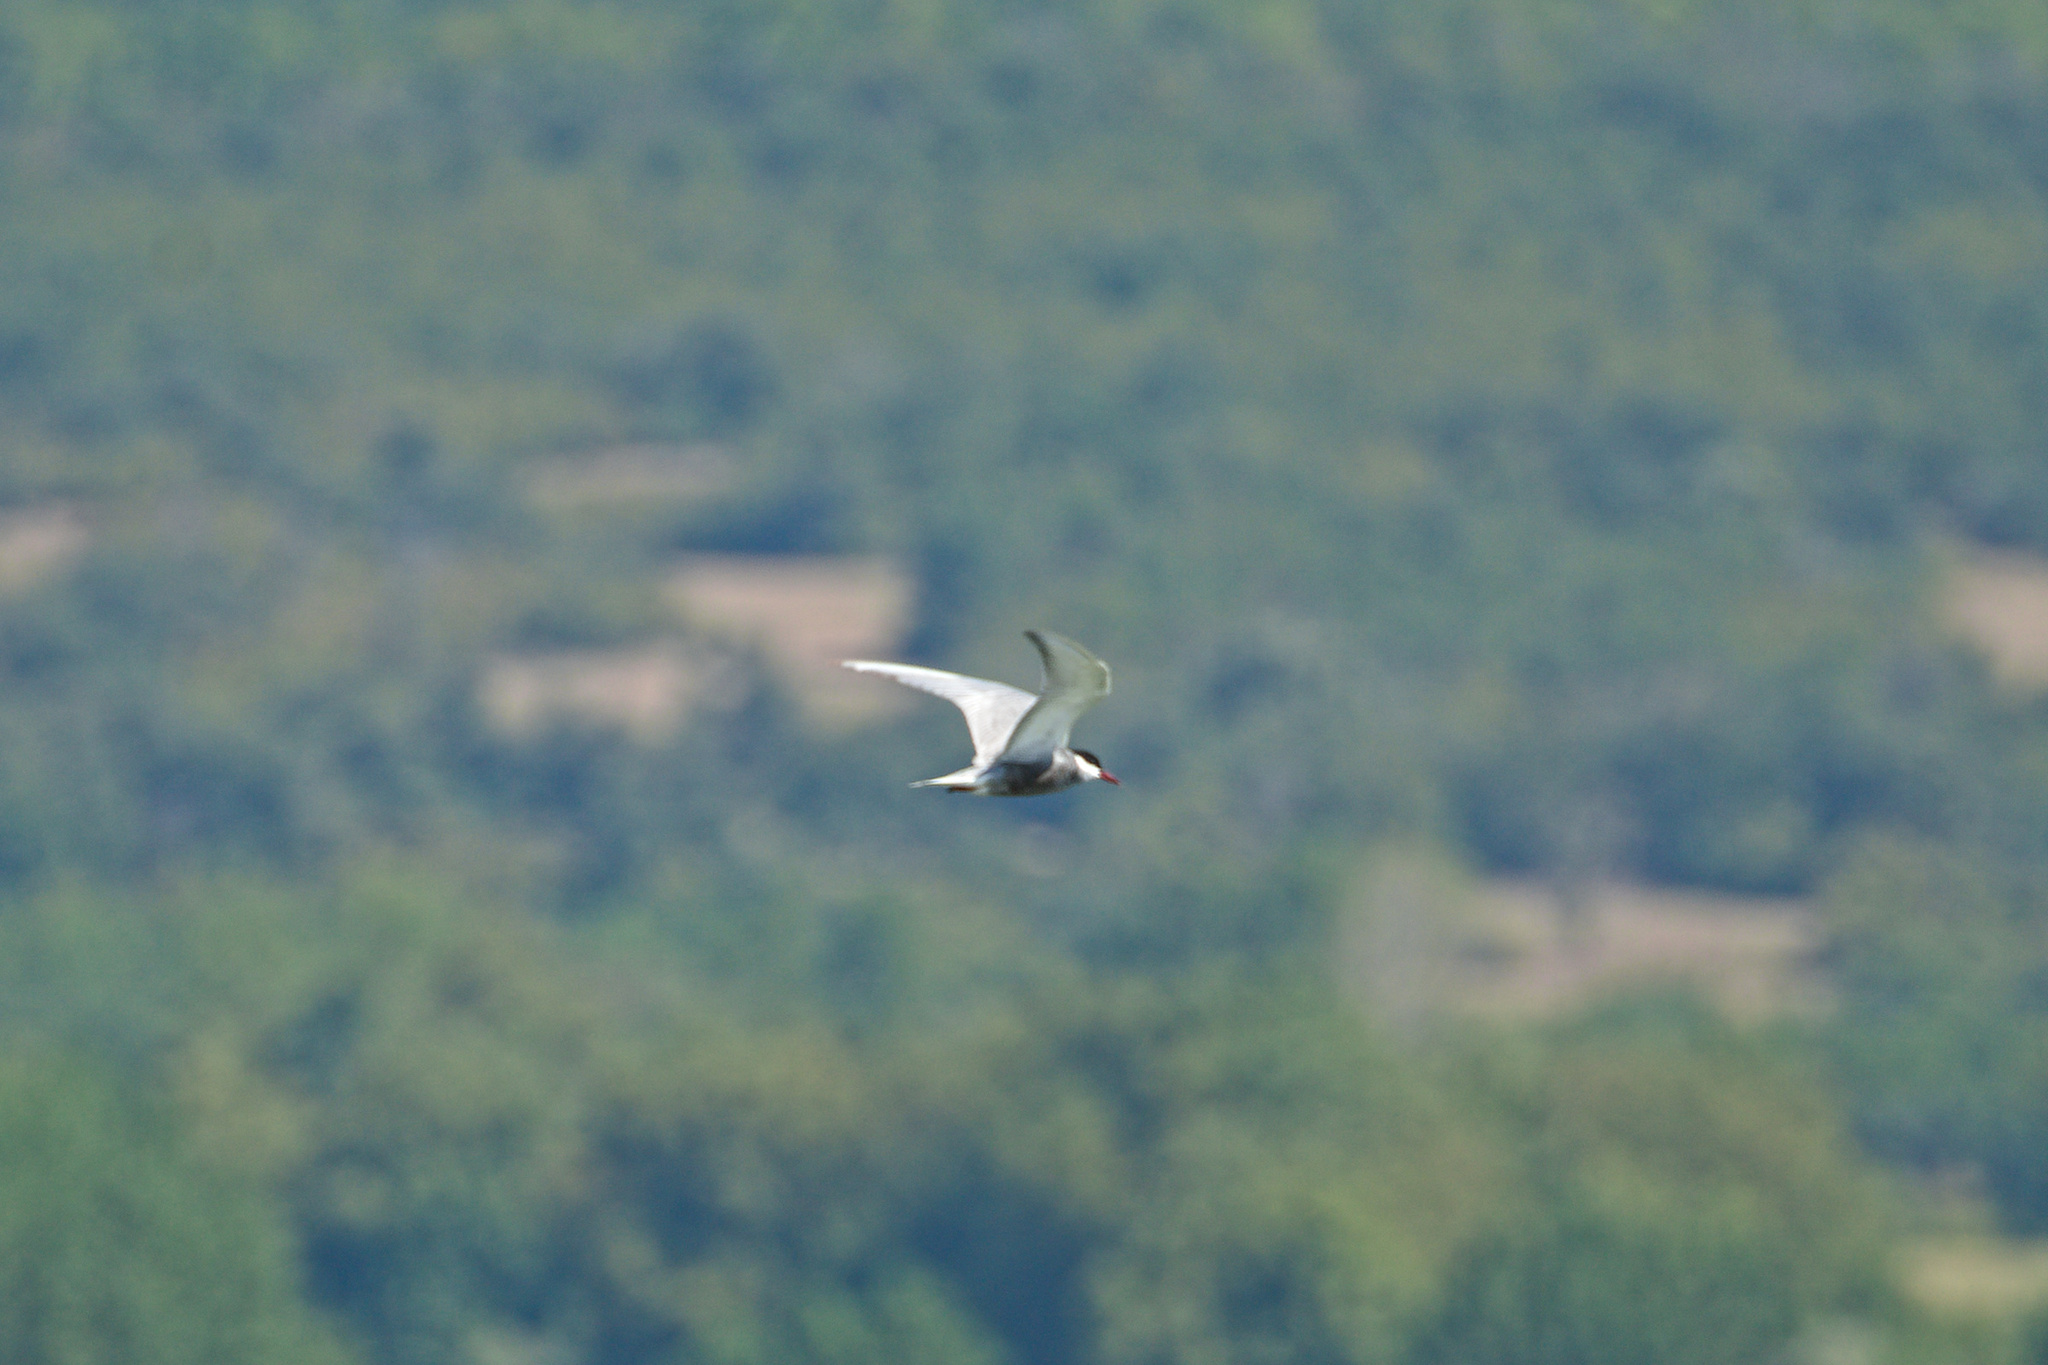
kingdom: Animalia
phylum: Chordata
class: Aves
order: Charadriiformes
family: Laridae
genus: Chlidonias
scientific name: Chlidonias hybrida
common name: Whiskered tern
